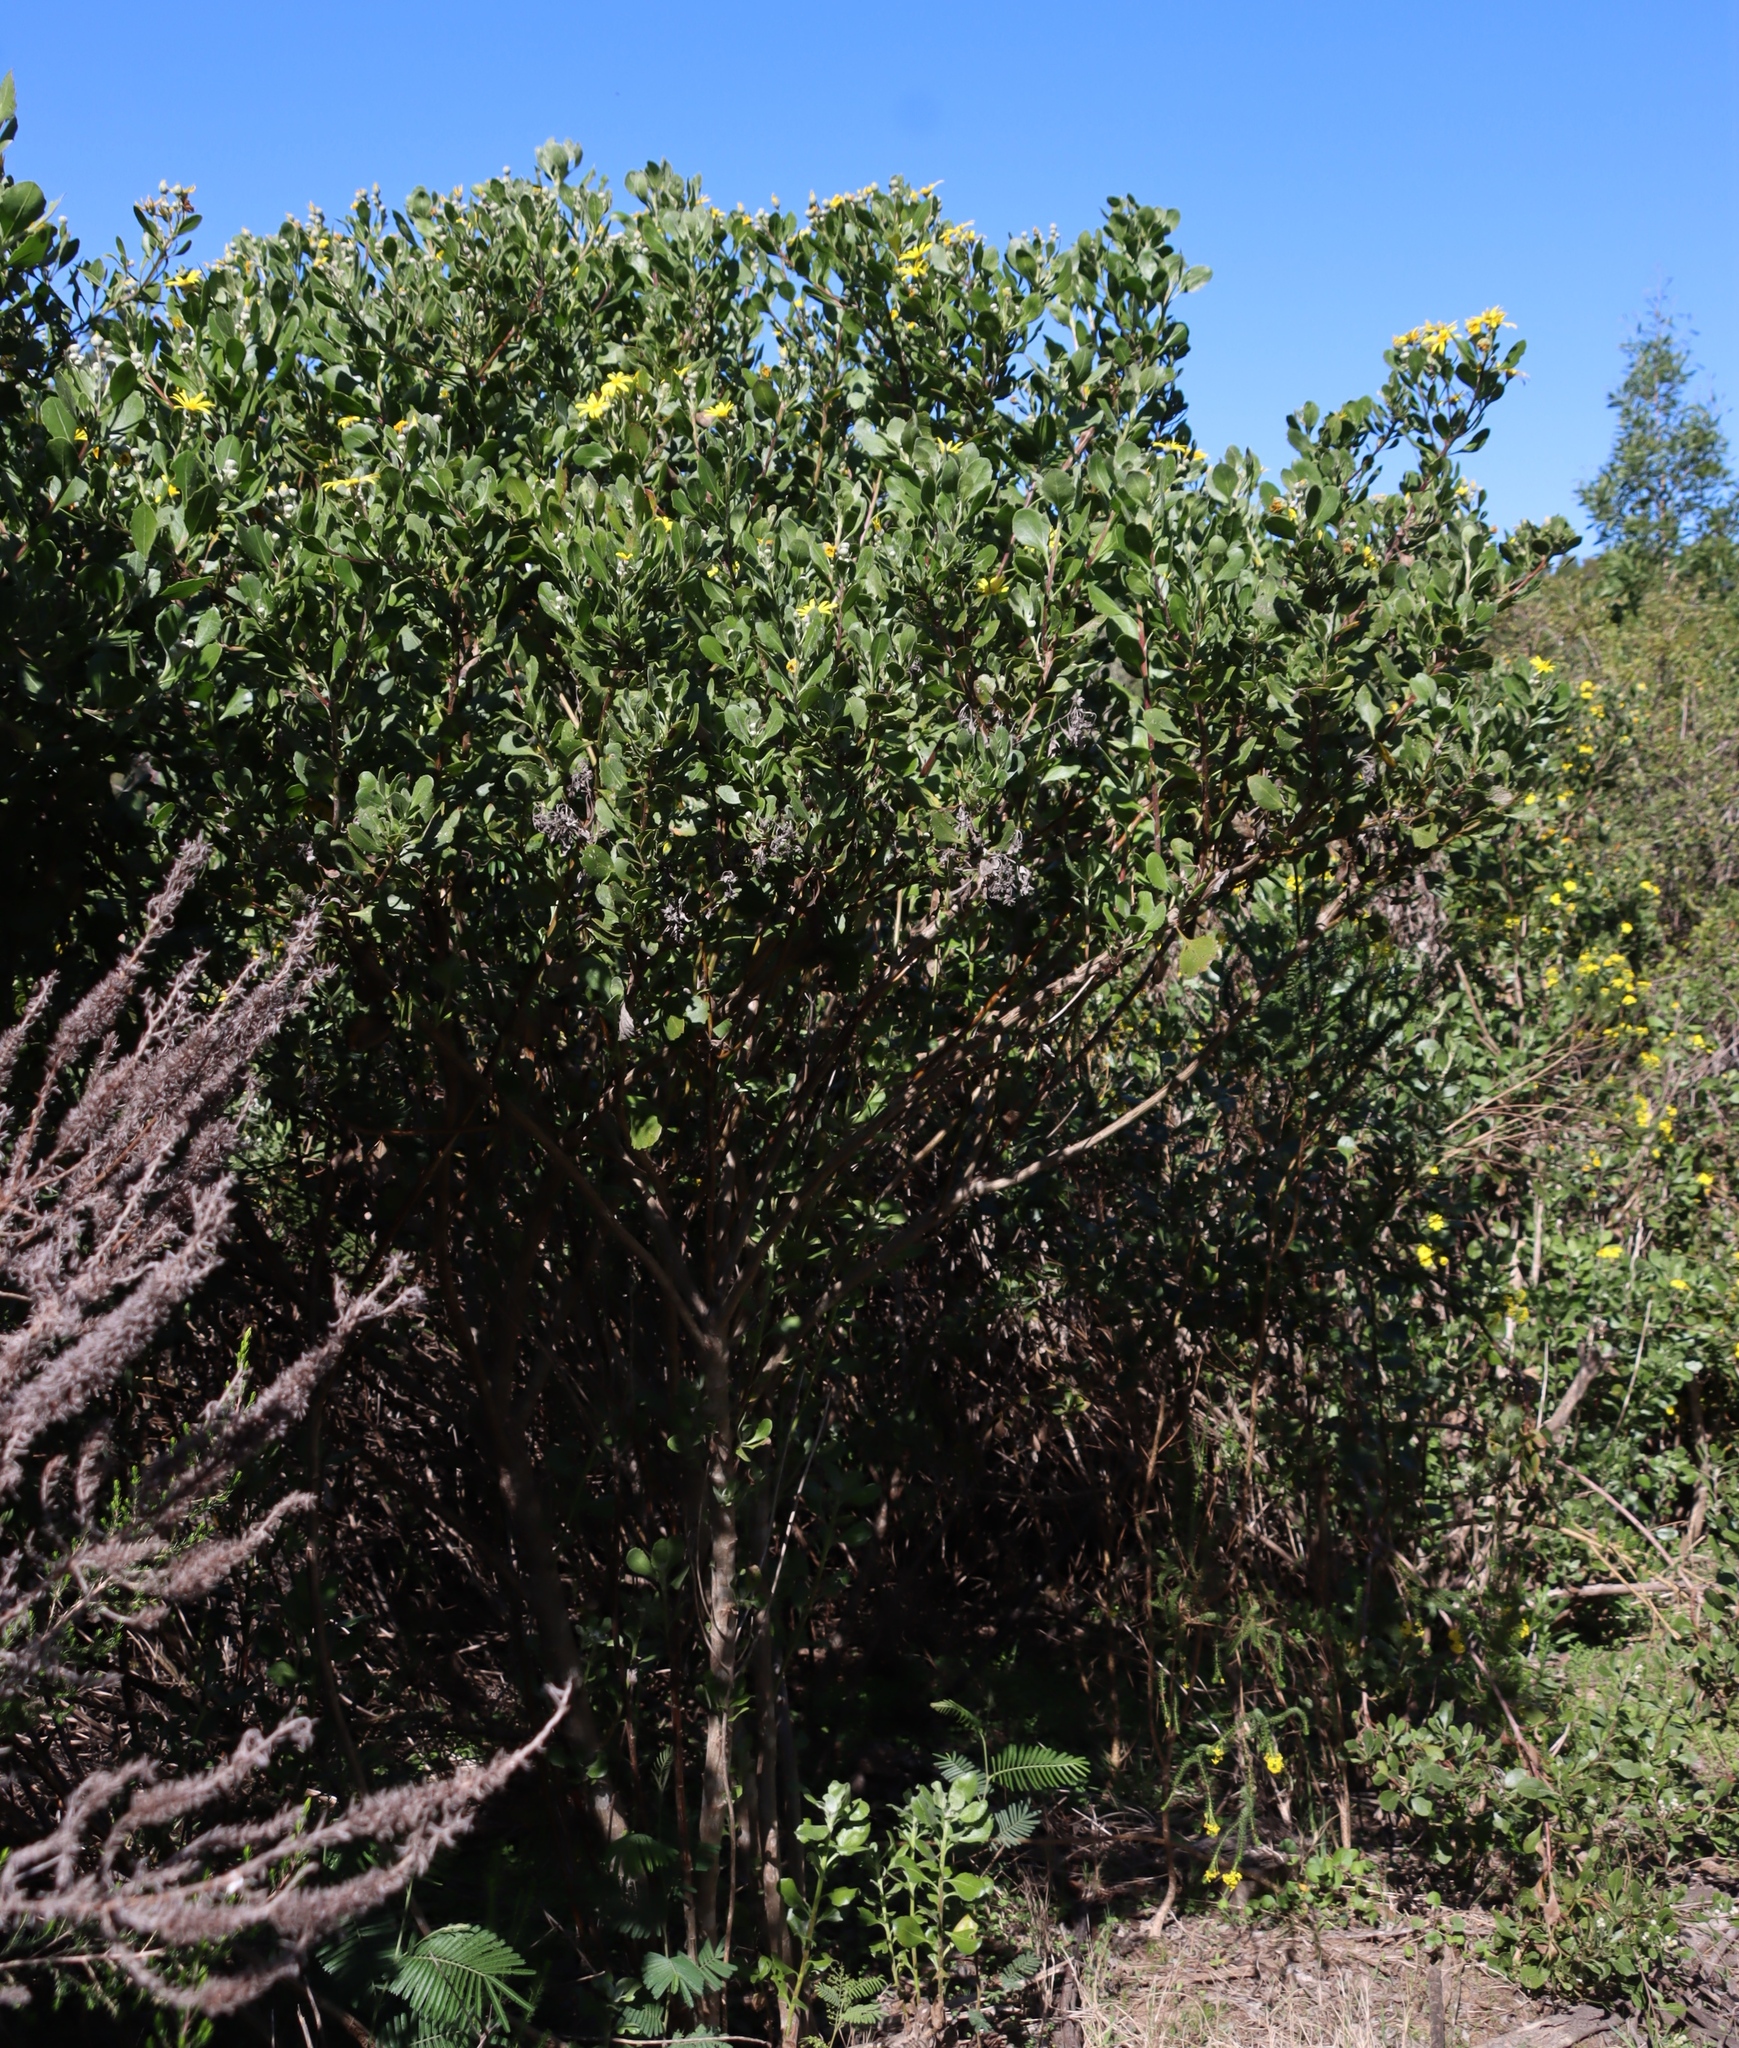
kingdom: Plantae
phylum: Tracheophyta
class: Magnoliopsida
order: Asterales
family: Asteraceae
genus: Osteospermum
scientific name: Osteospermum moniliferum
